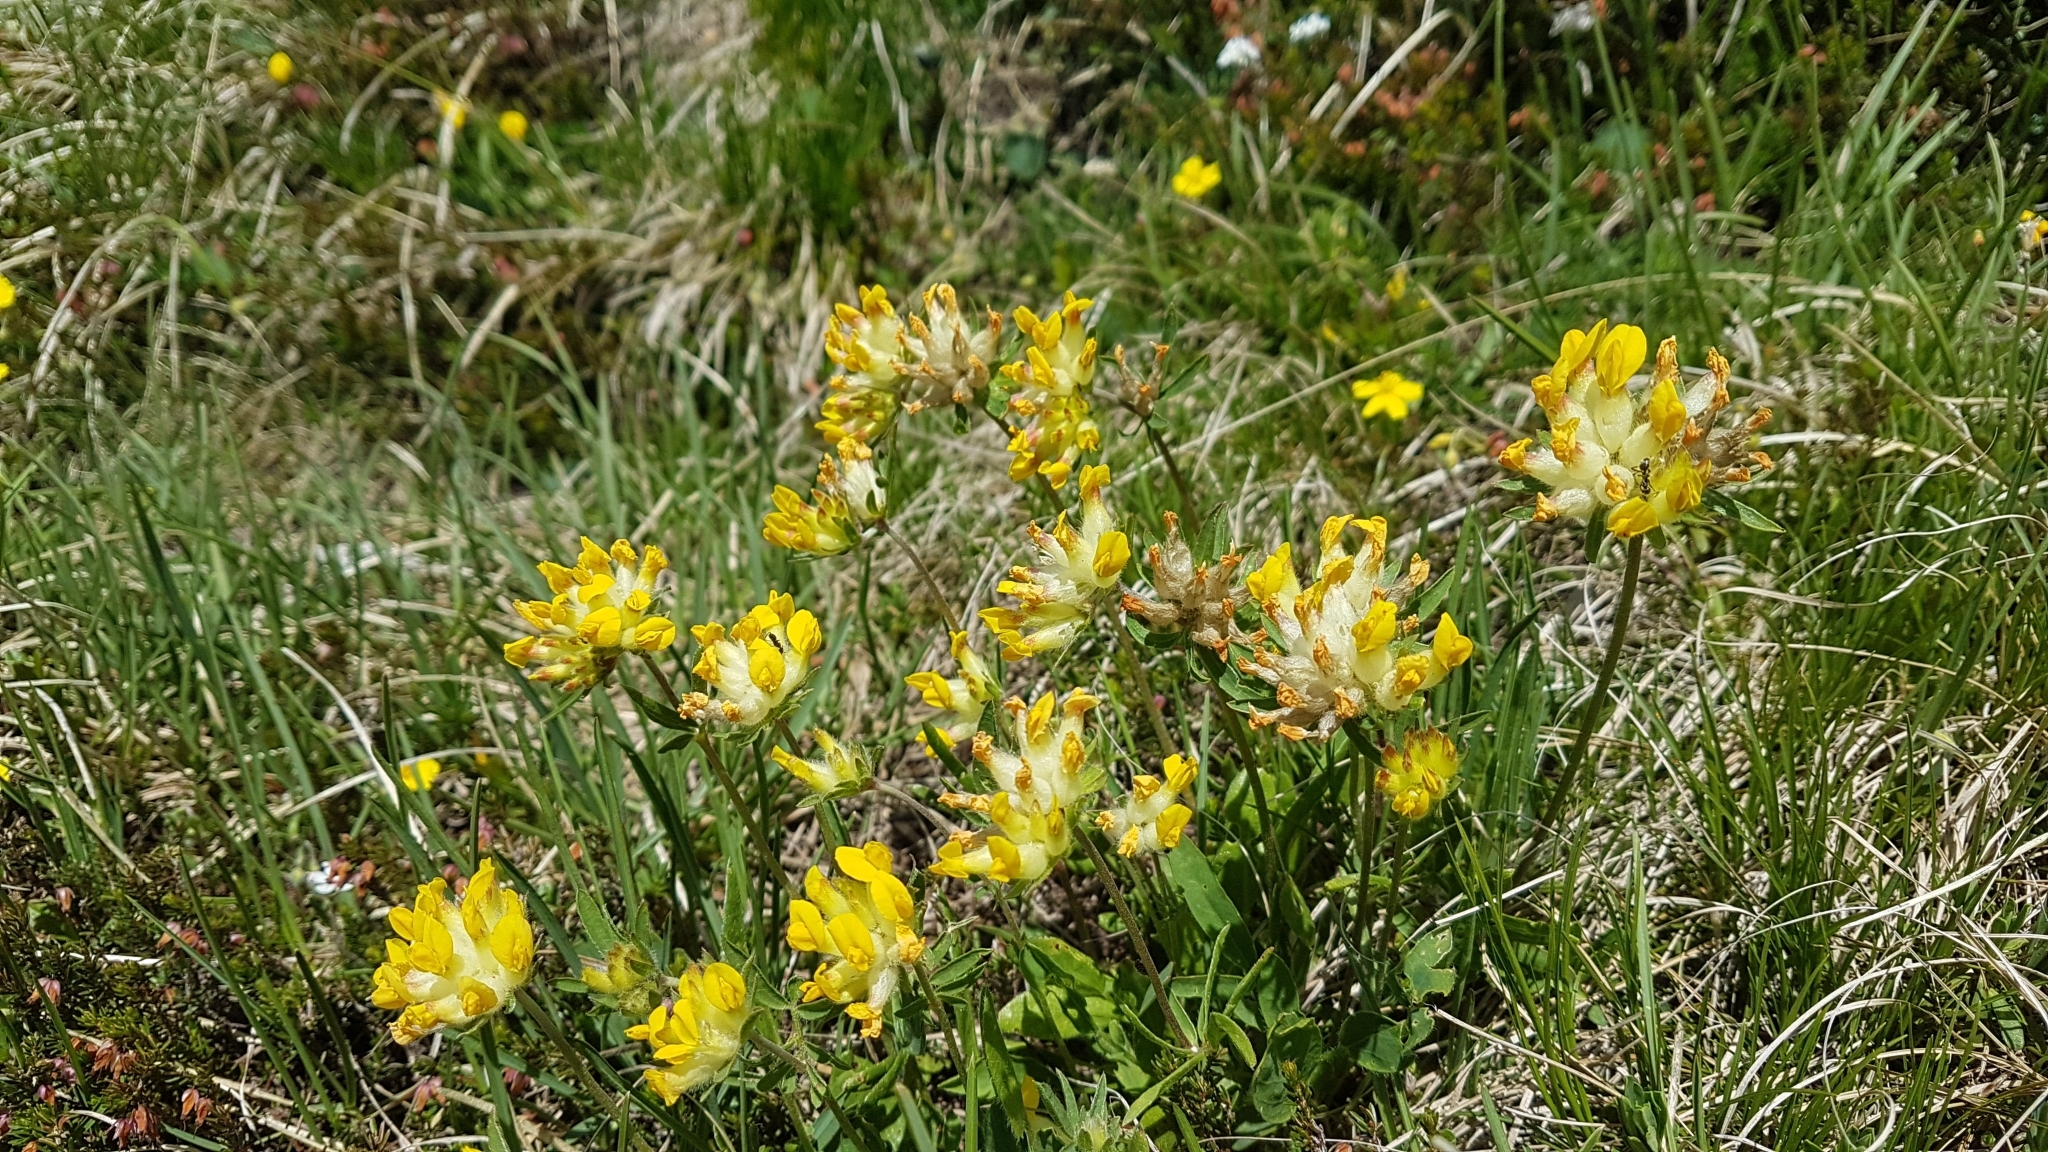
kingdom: Plantae
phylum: Tracheophyta
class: Magnoliopsida
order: Fabales
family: Fabaceae
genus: Anthyllis
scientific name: Anthyllis vulneraria
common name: Kidney vetch
